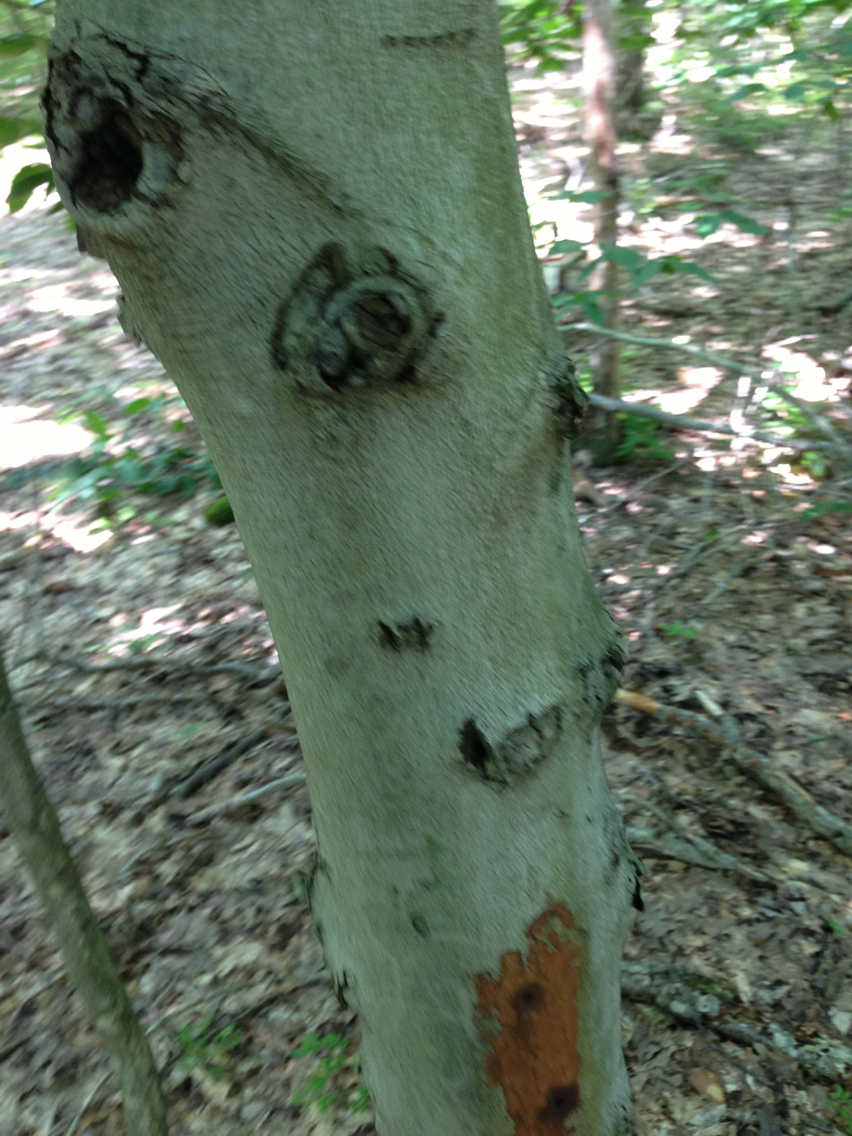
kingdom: Plantae
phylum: Tracheophyta
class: Magnoliopsida
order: Fagales
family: Fagaceae
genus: Fagus
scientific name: Fagus grandifolia
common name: American beech
